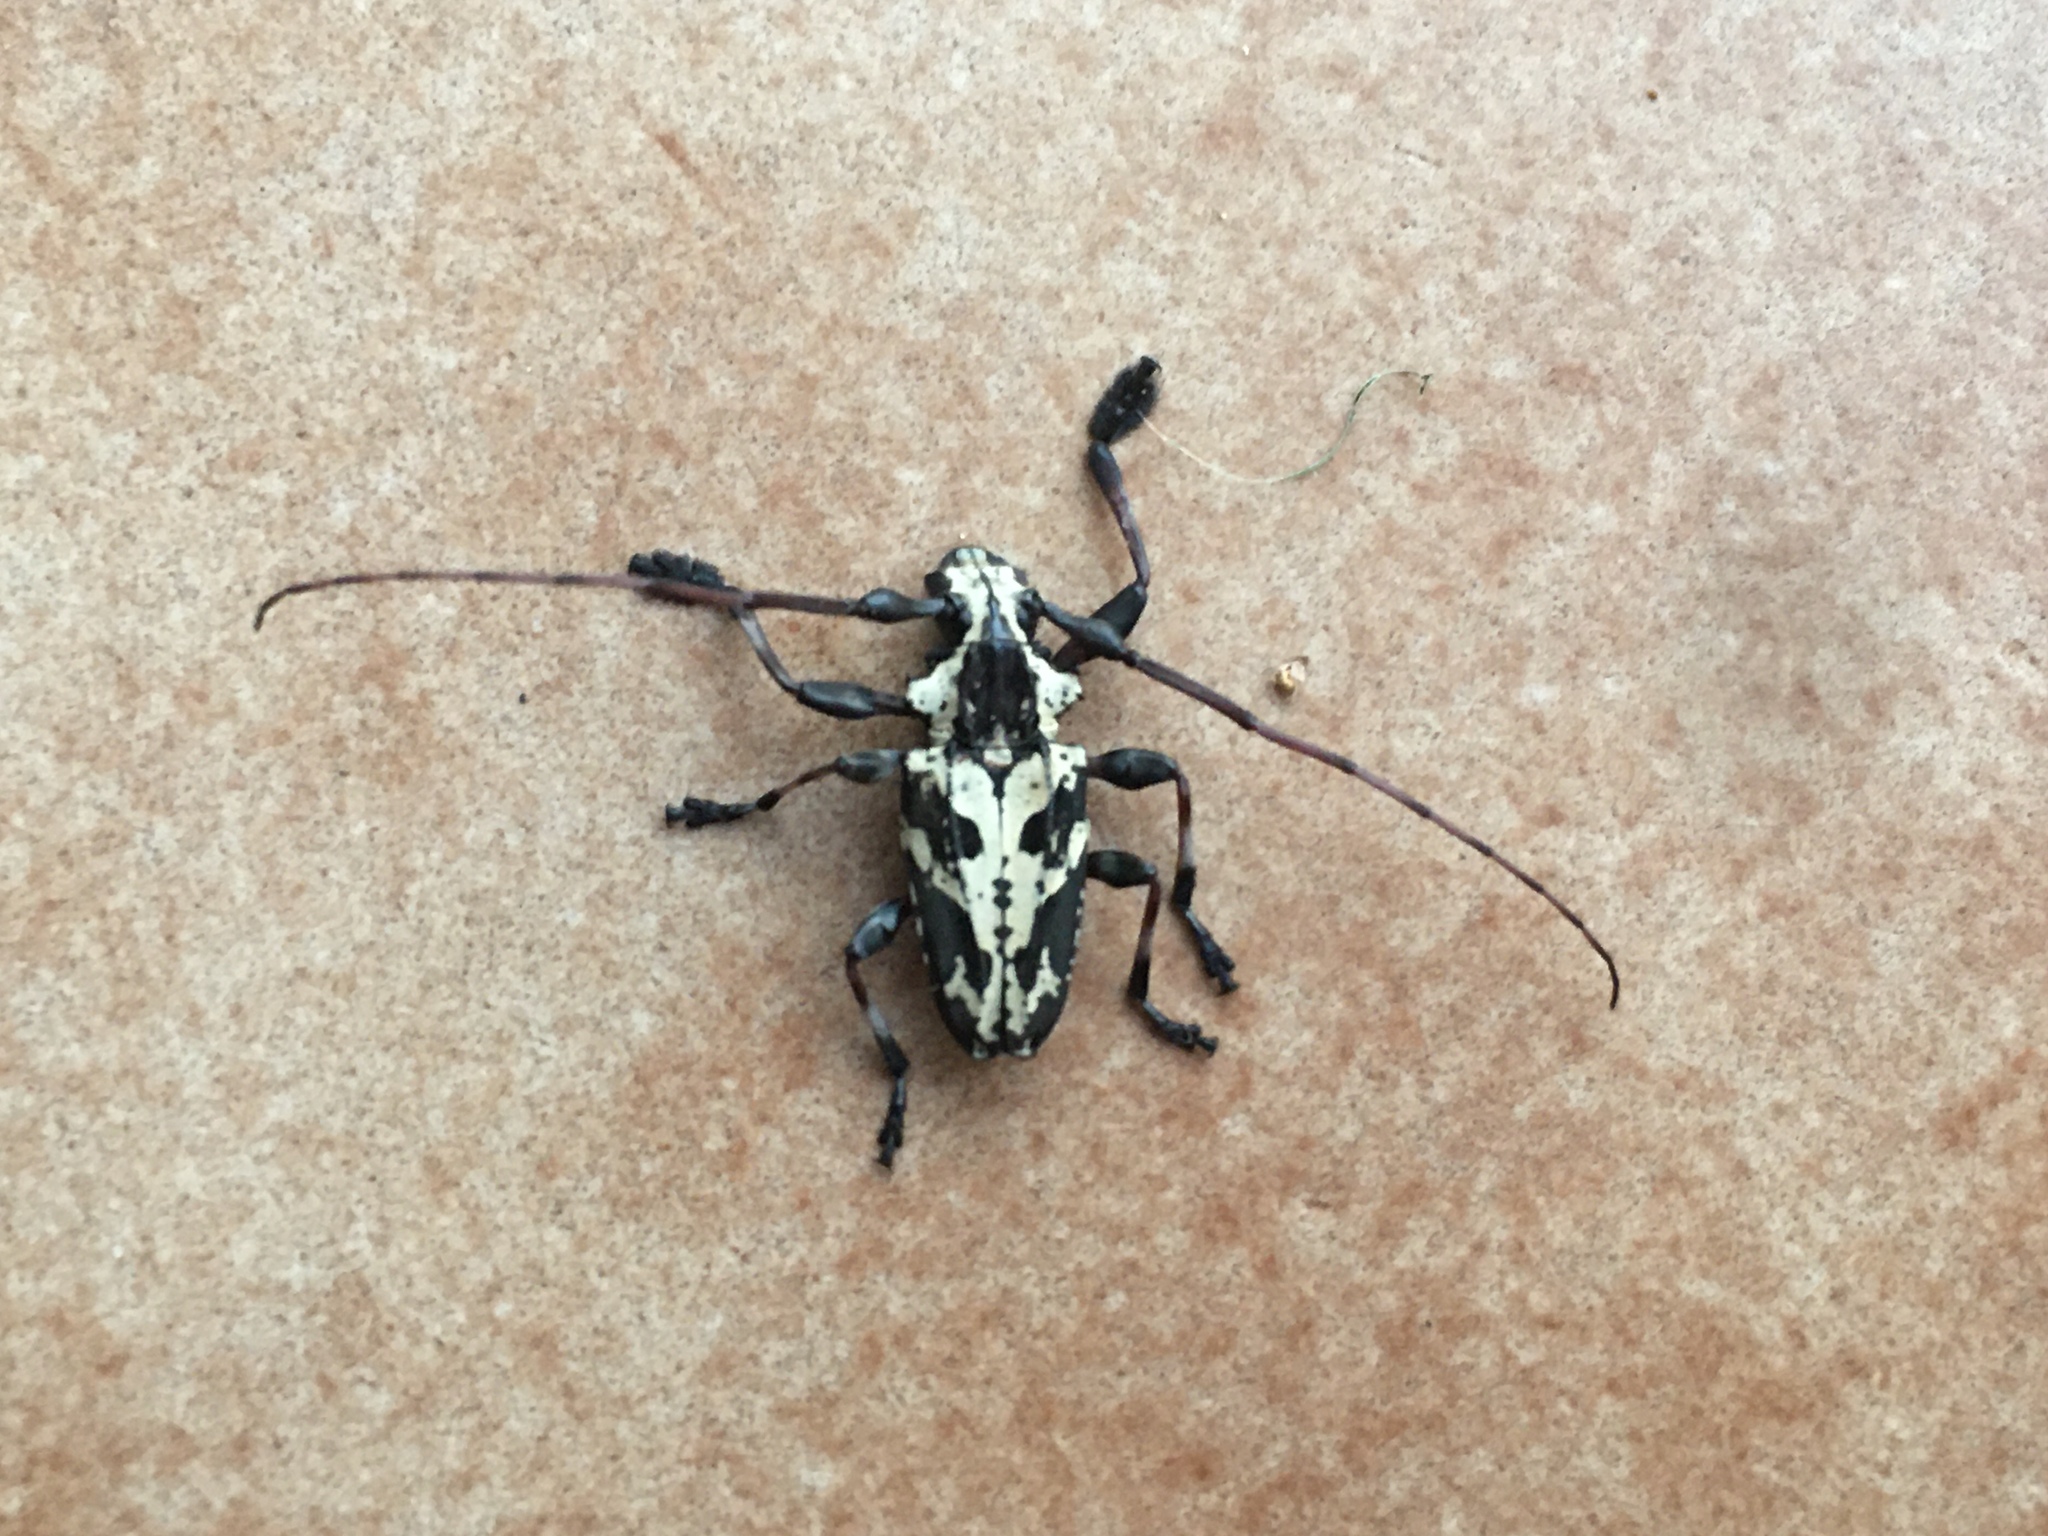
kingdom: Animalia
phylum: Arthropoda
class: Insecta
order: Coleoptera
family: Cerambycidae
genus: Steirastoma
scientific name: Steirastoma marmoratum
